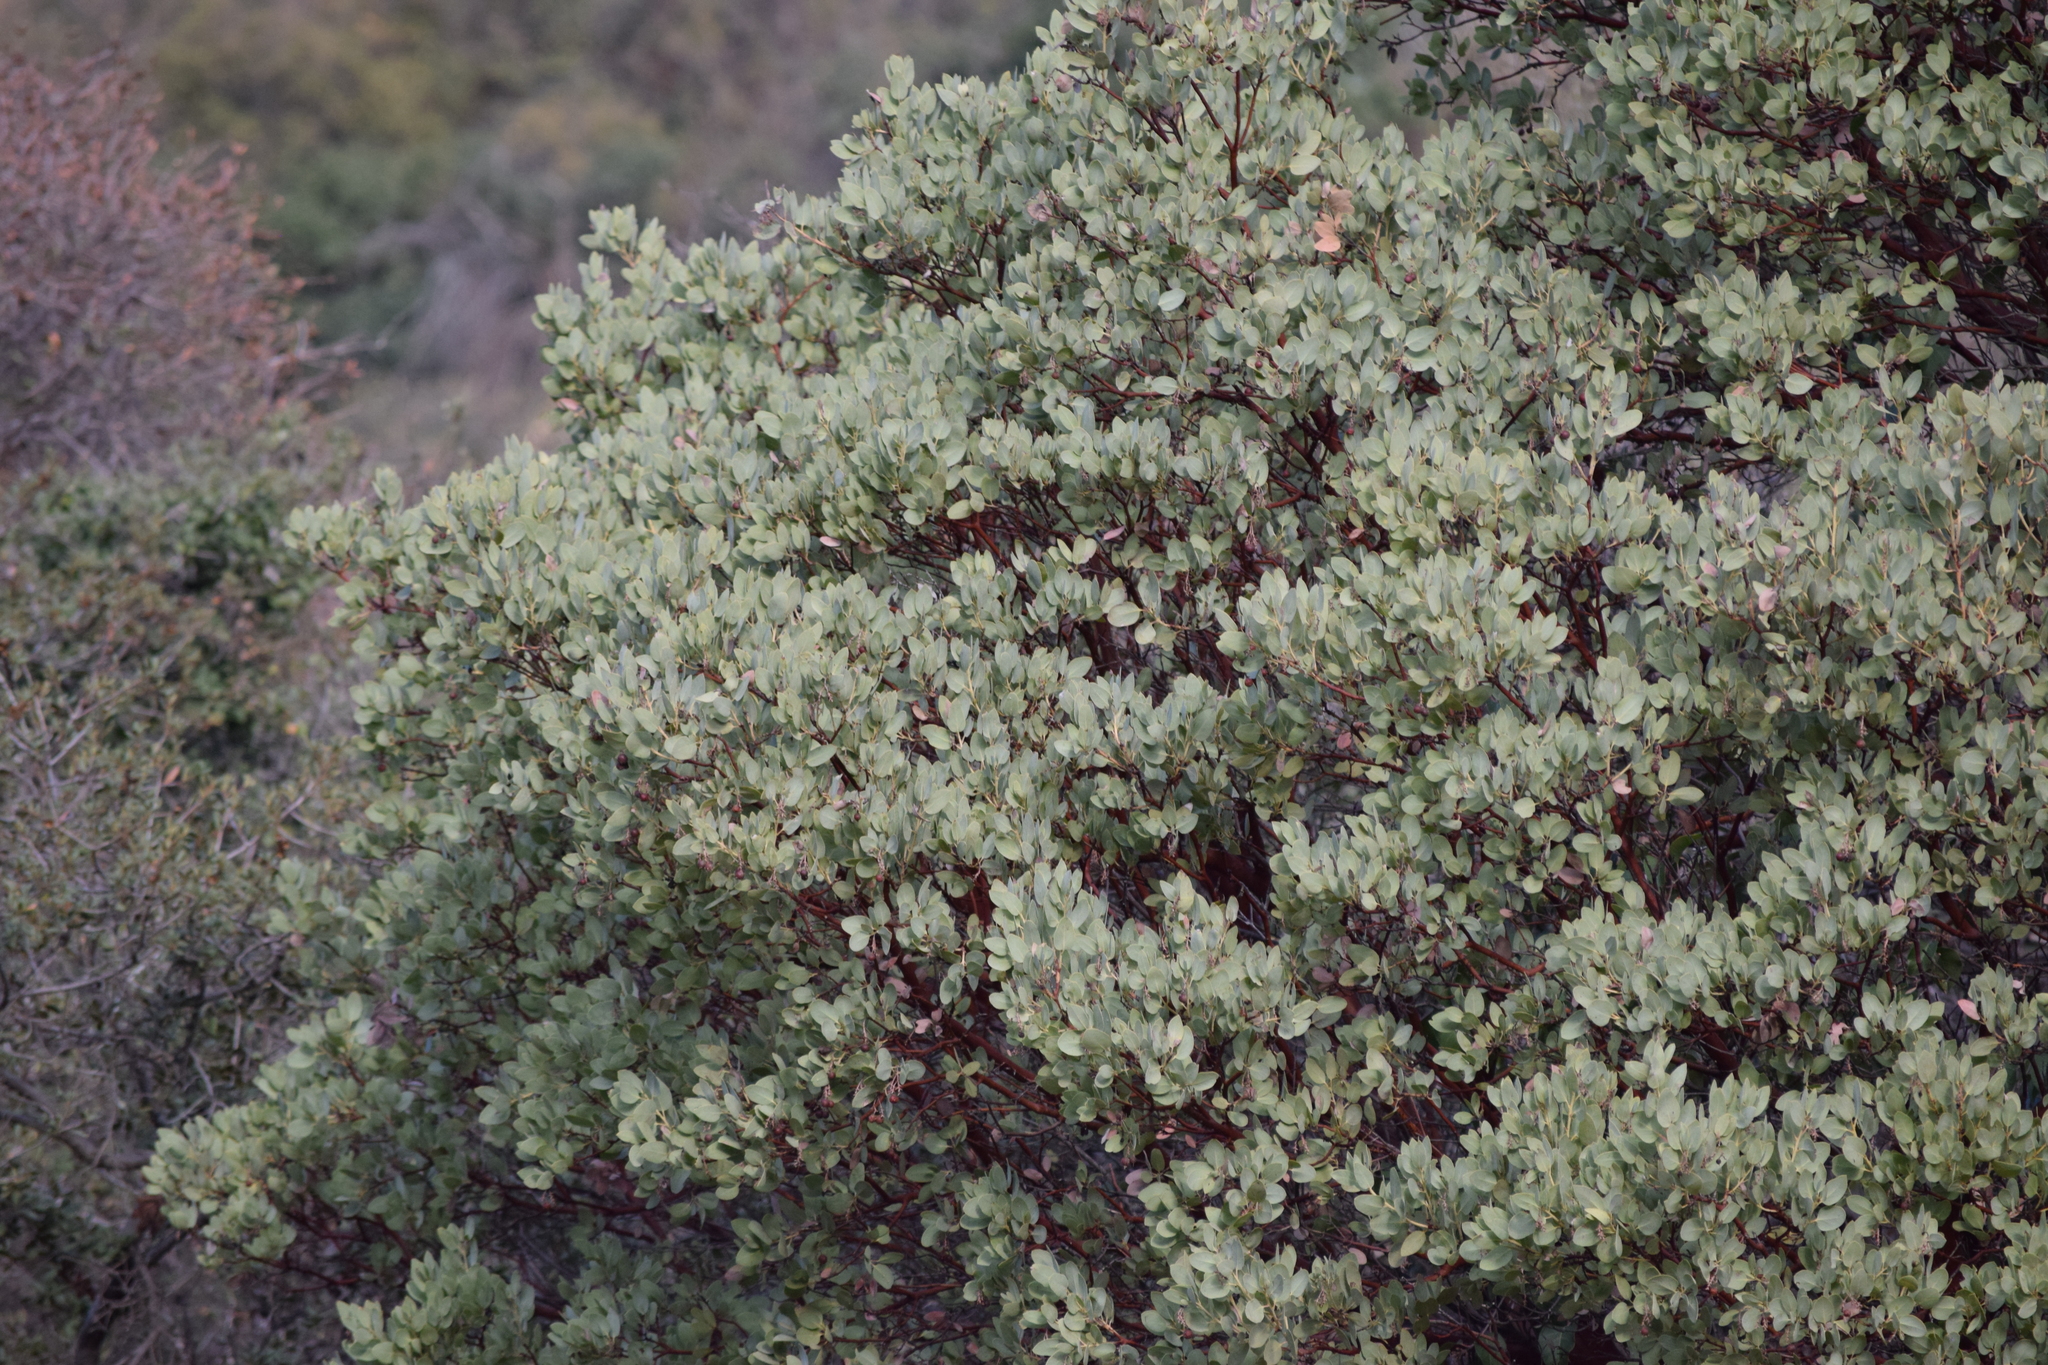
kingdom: Plantae
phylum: Tracheophyta
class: Magnoliopsida
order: Ericales
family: Ericaceae
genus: Arctostaphylos
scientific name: Arctostaphylos glauca
